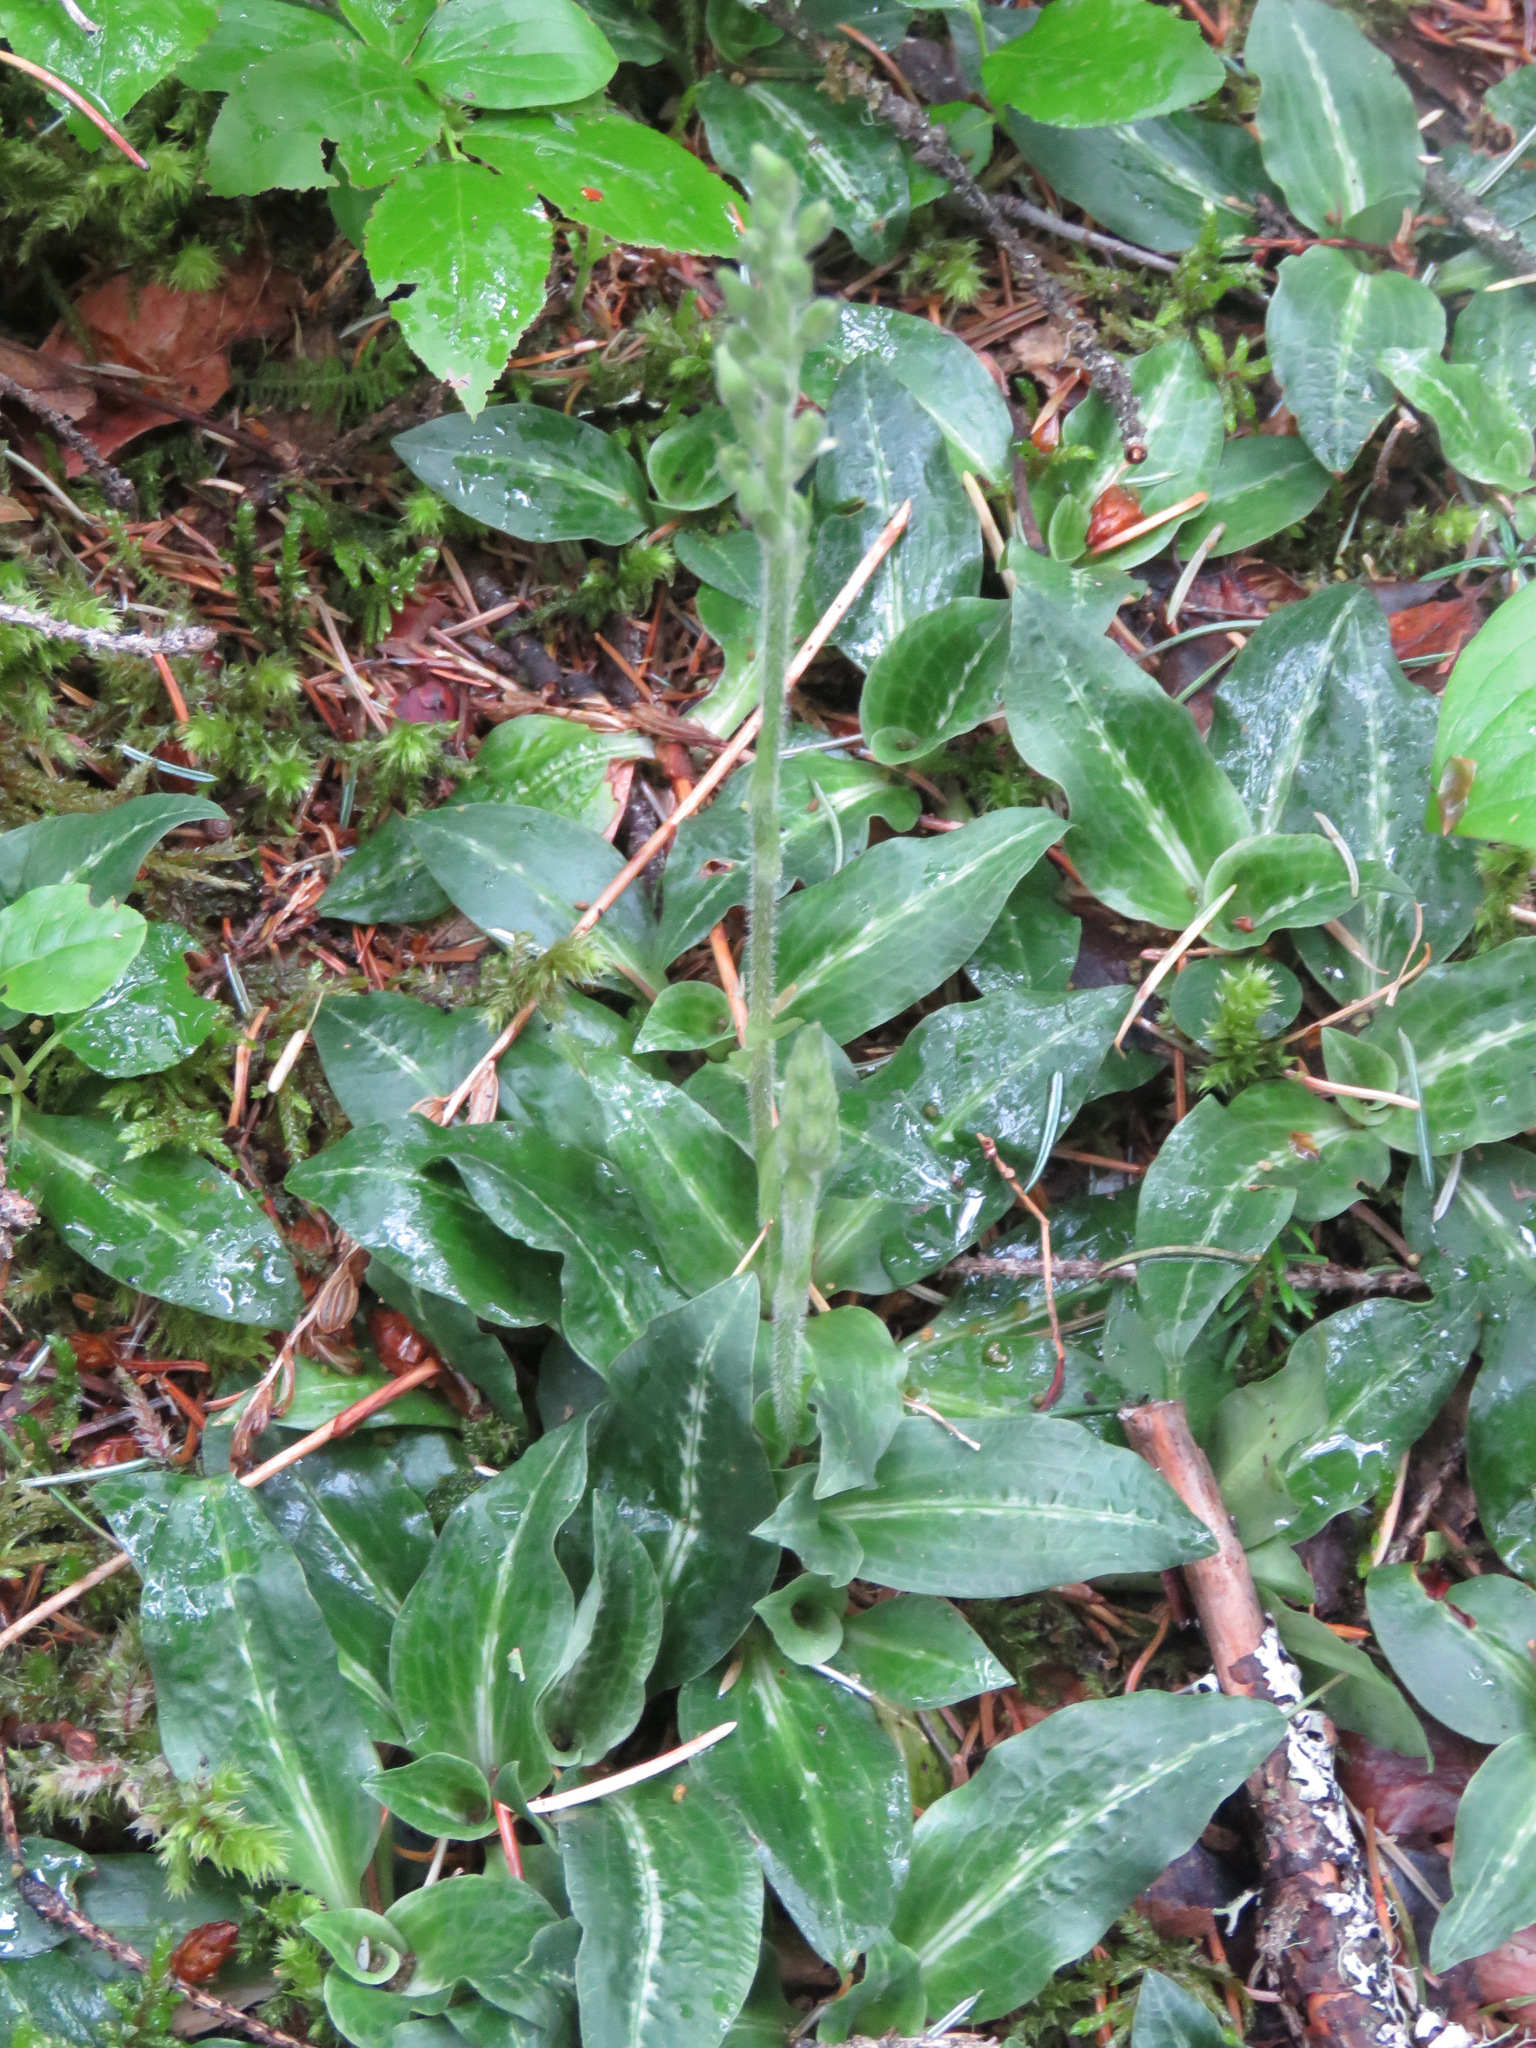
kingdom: Plantae
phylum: Tracheophyta
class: Liliopsida
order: Asparagales
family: Orchidaceae
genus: Goodyera
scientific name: Goodyera oblongifolia
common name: Giant rattlesnake-plantain
